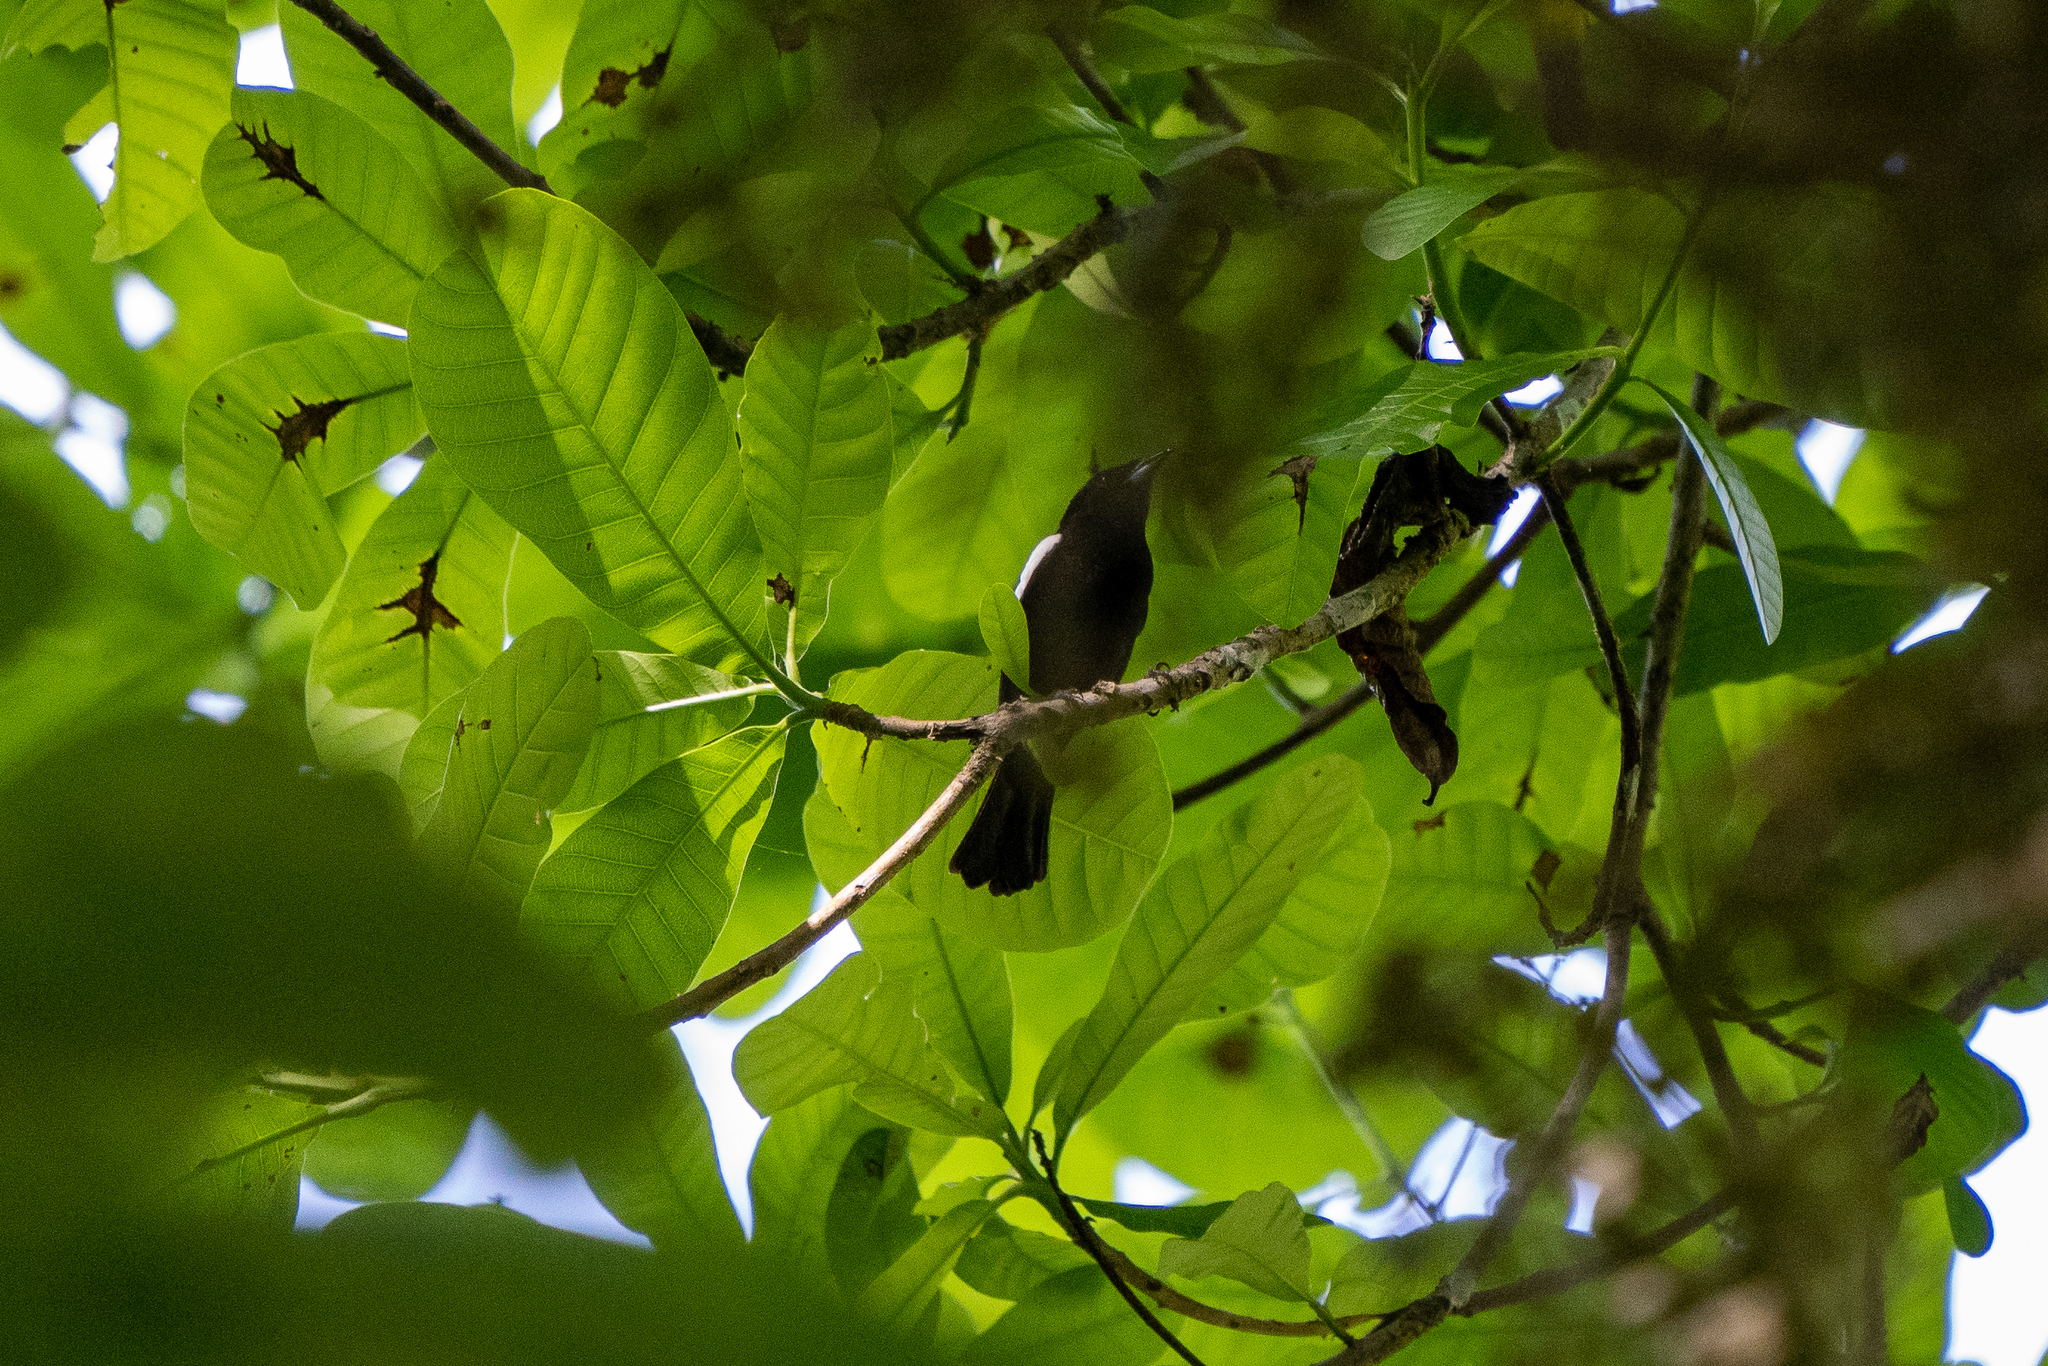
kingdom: Animalia
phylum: Chordata
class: Aves
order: Passeriformes
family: Thraupidae
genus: Loriotus
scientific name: Loriotus luctuosus
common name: White-shouldered tanager
